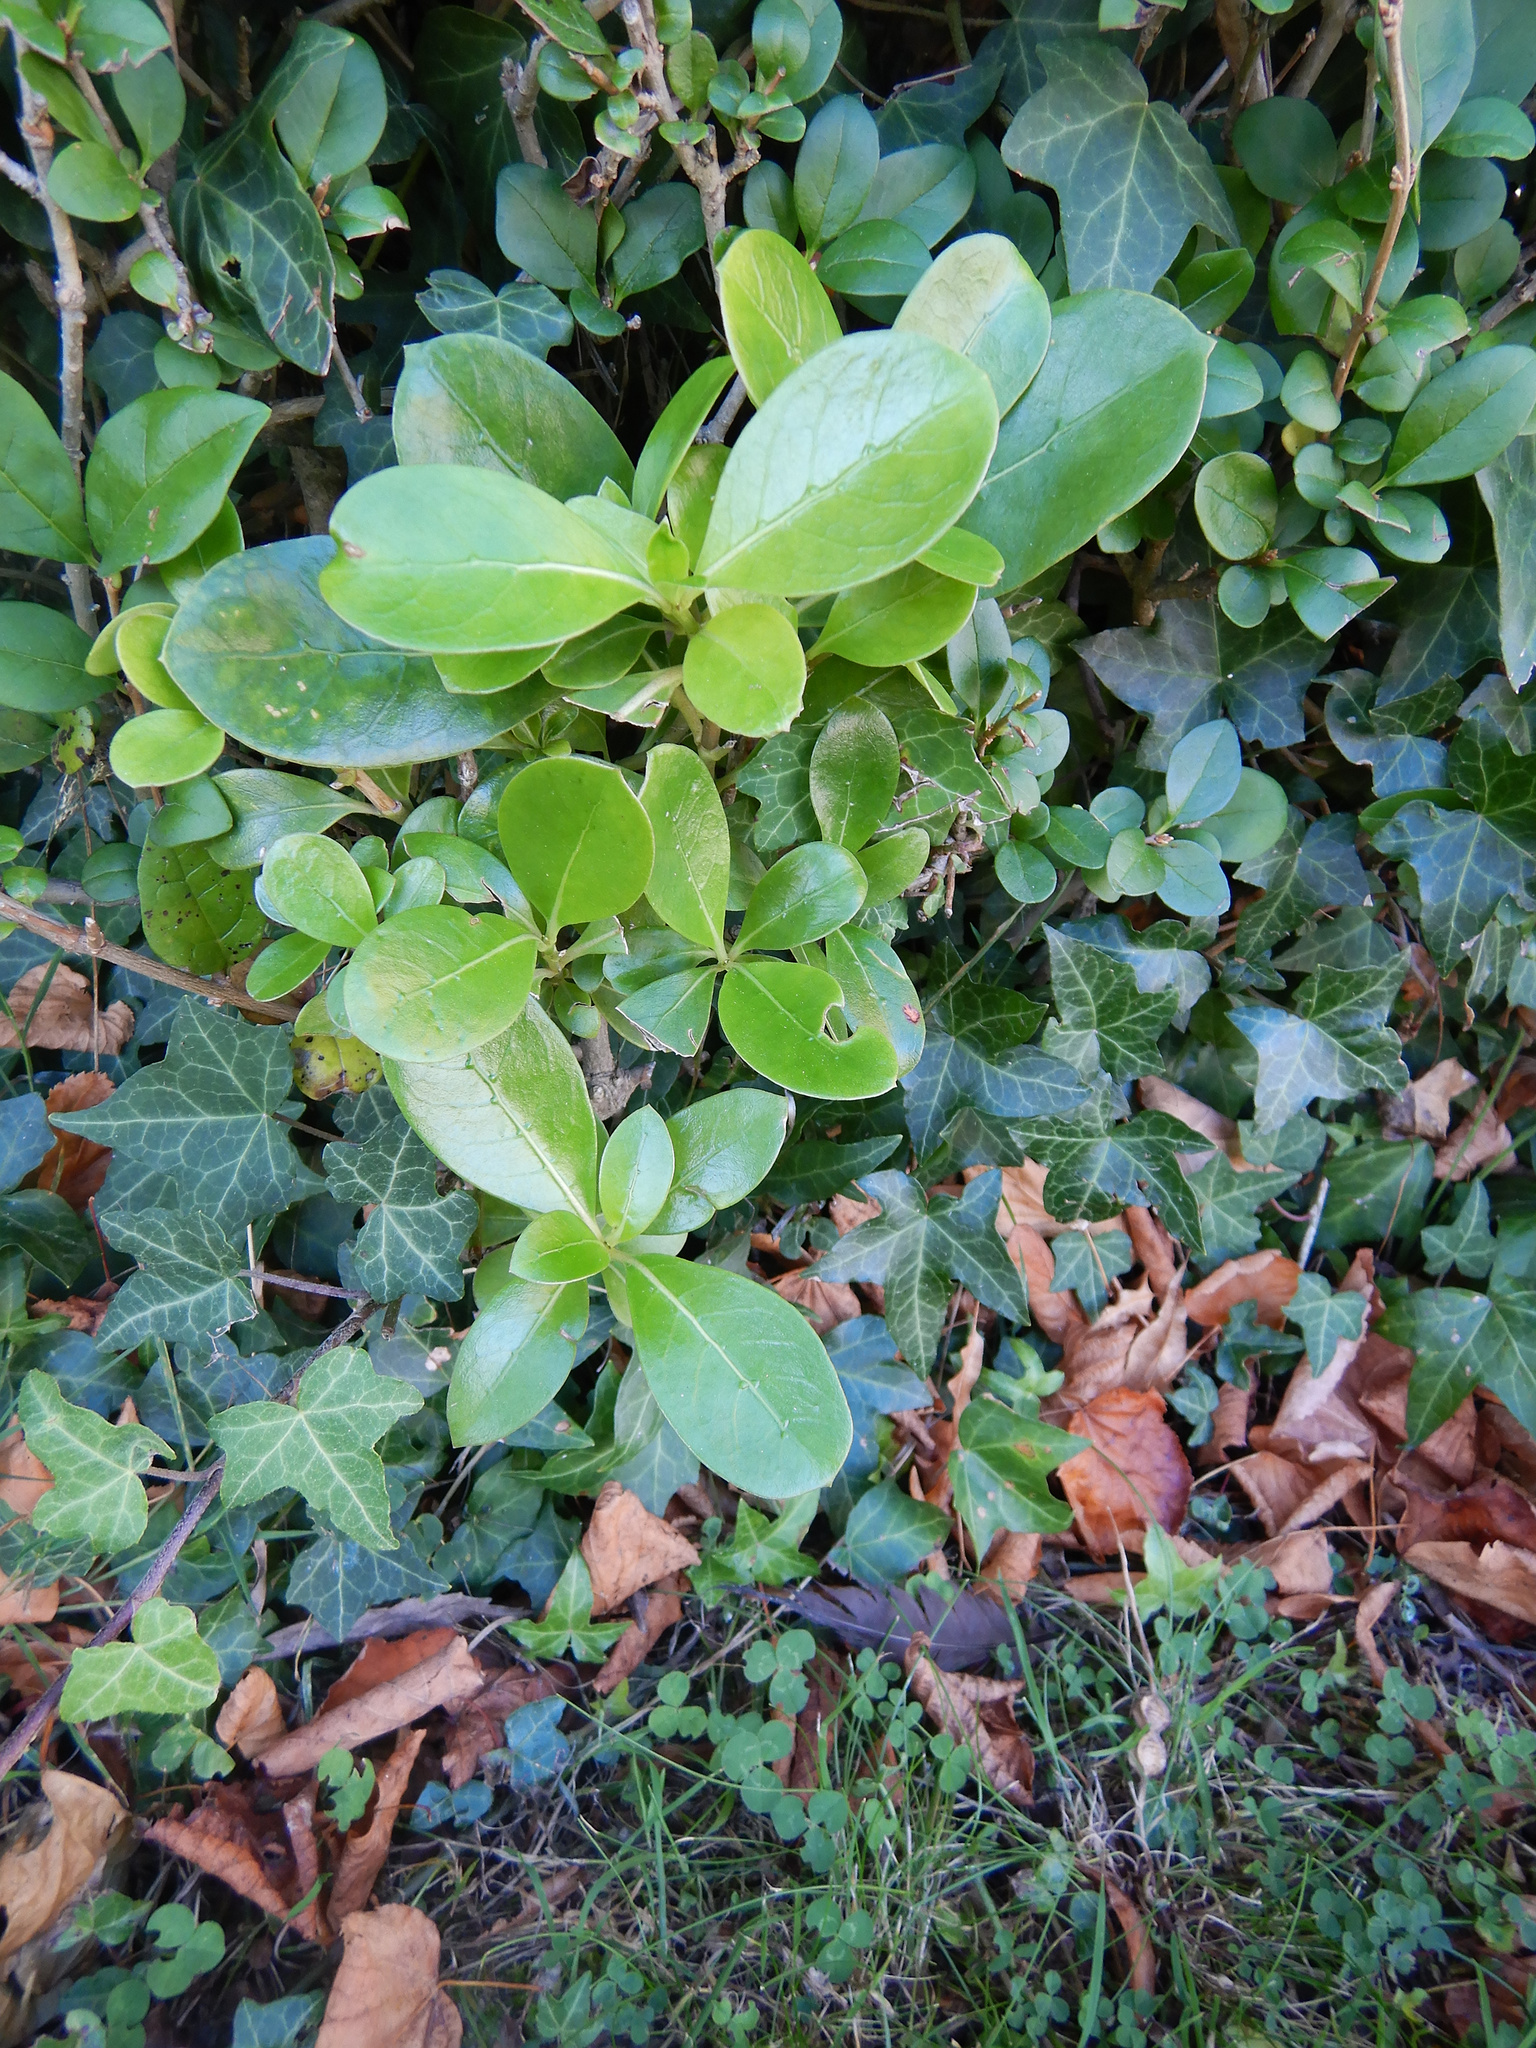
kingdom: Plantae
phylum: Tracheophyta
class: Magnoliopsida
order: Gentianales
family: Rubiaceae
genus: Coprosma
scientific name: Coprosma lucida
